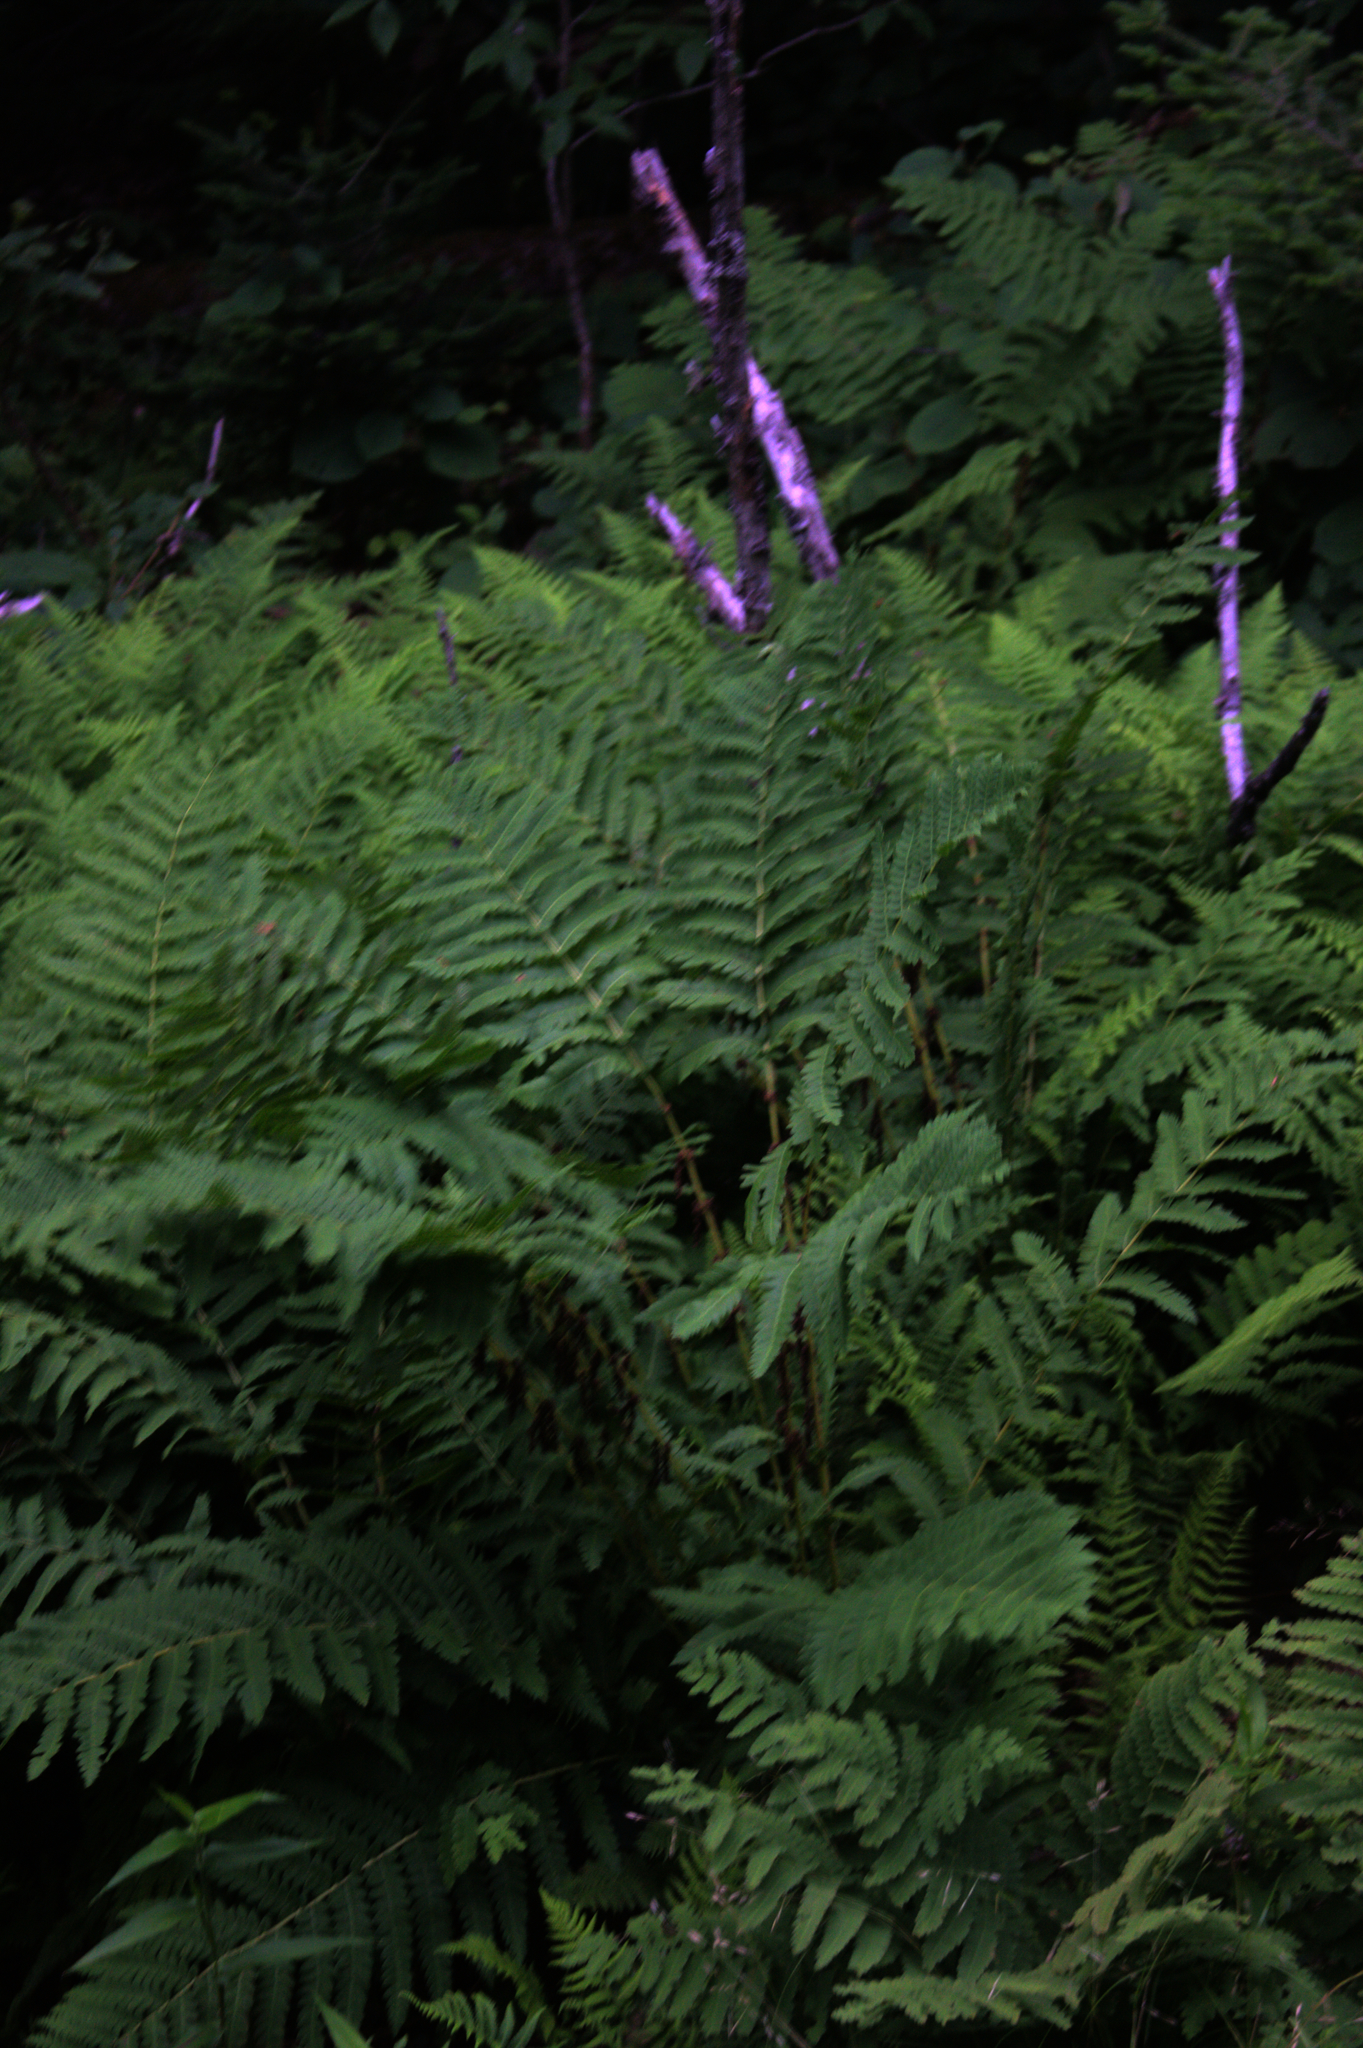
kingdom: Plantae
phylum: Tracheophyta
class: Polypodiopsida
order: Osmundales
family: Osmundaceae
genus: Claytosmunda
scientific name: Claytosmunda claytoniana
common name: Clayton's fern
